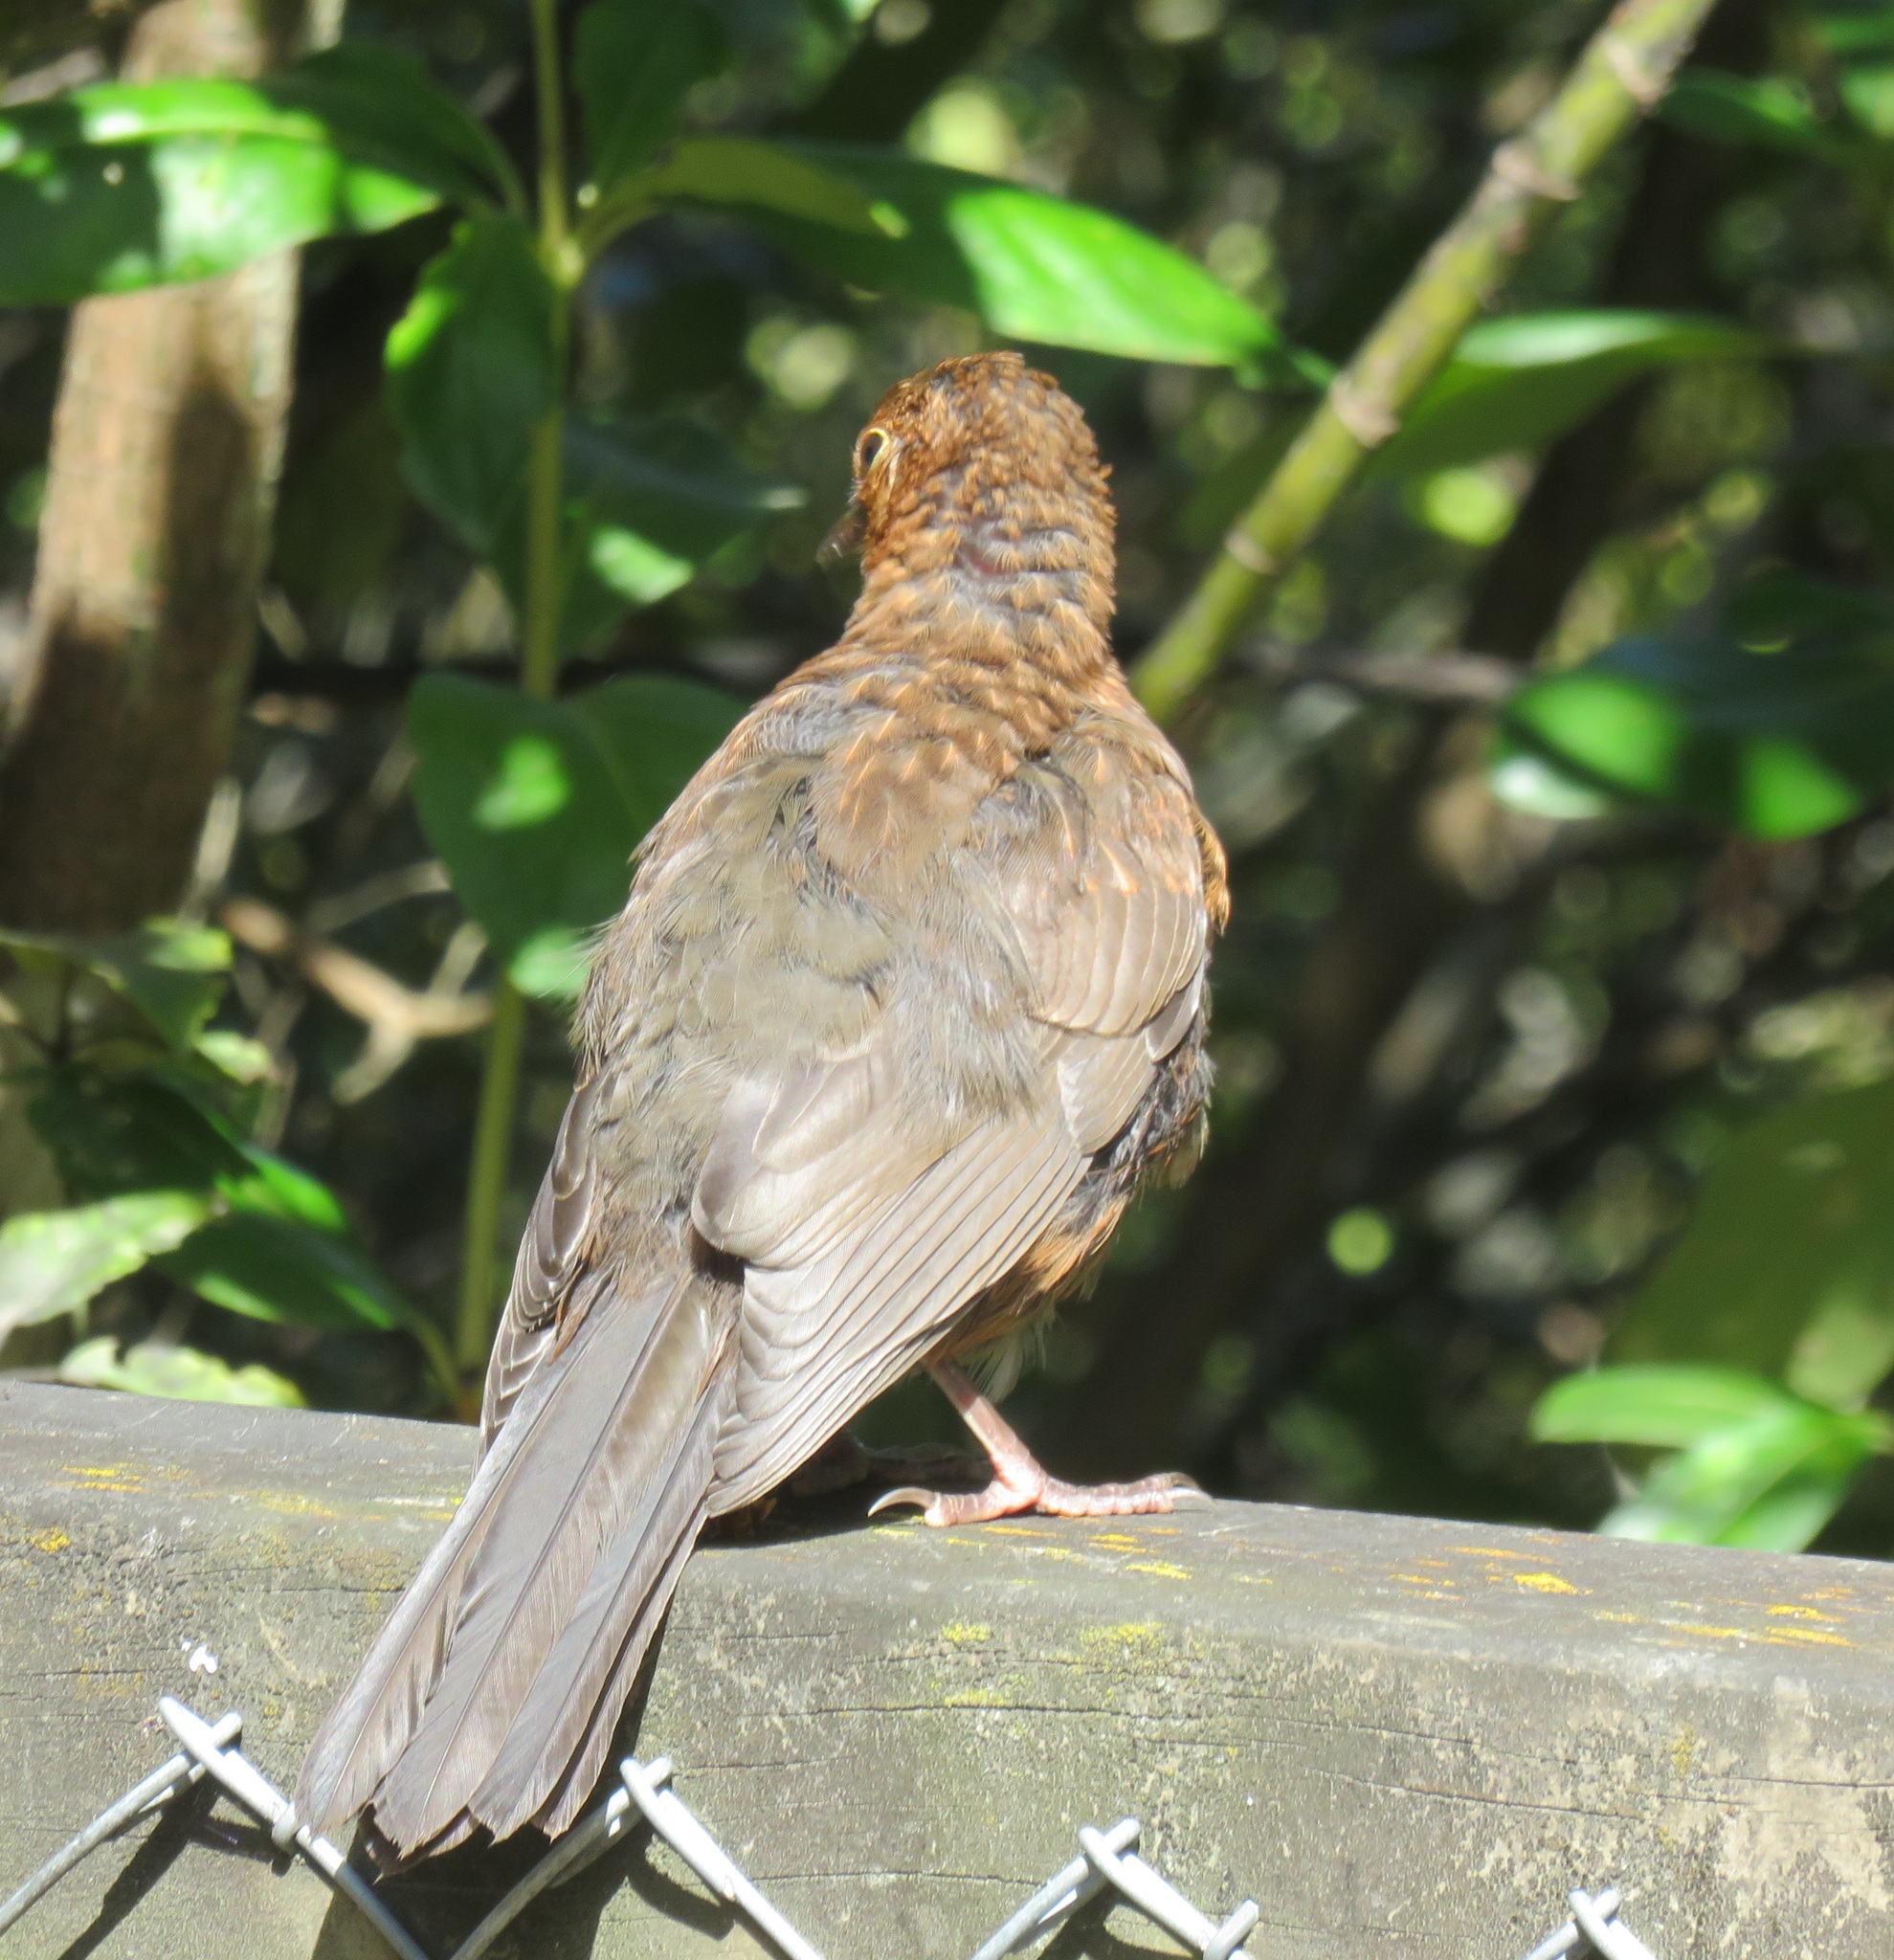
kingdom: Animalia
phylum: Chordata
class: Aves
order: Passeriformes
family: Turdidae
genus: Turdus
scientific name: Turdus merula
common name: Common blackbird
